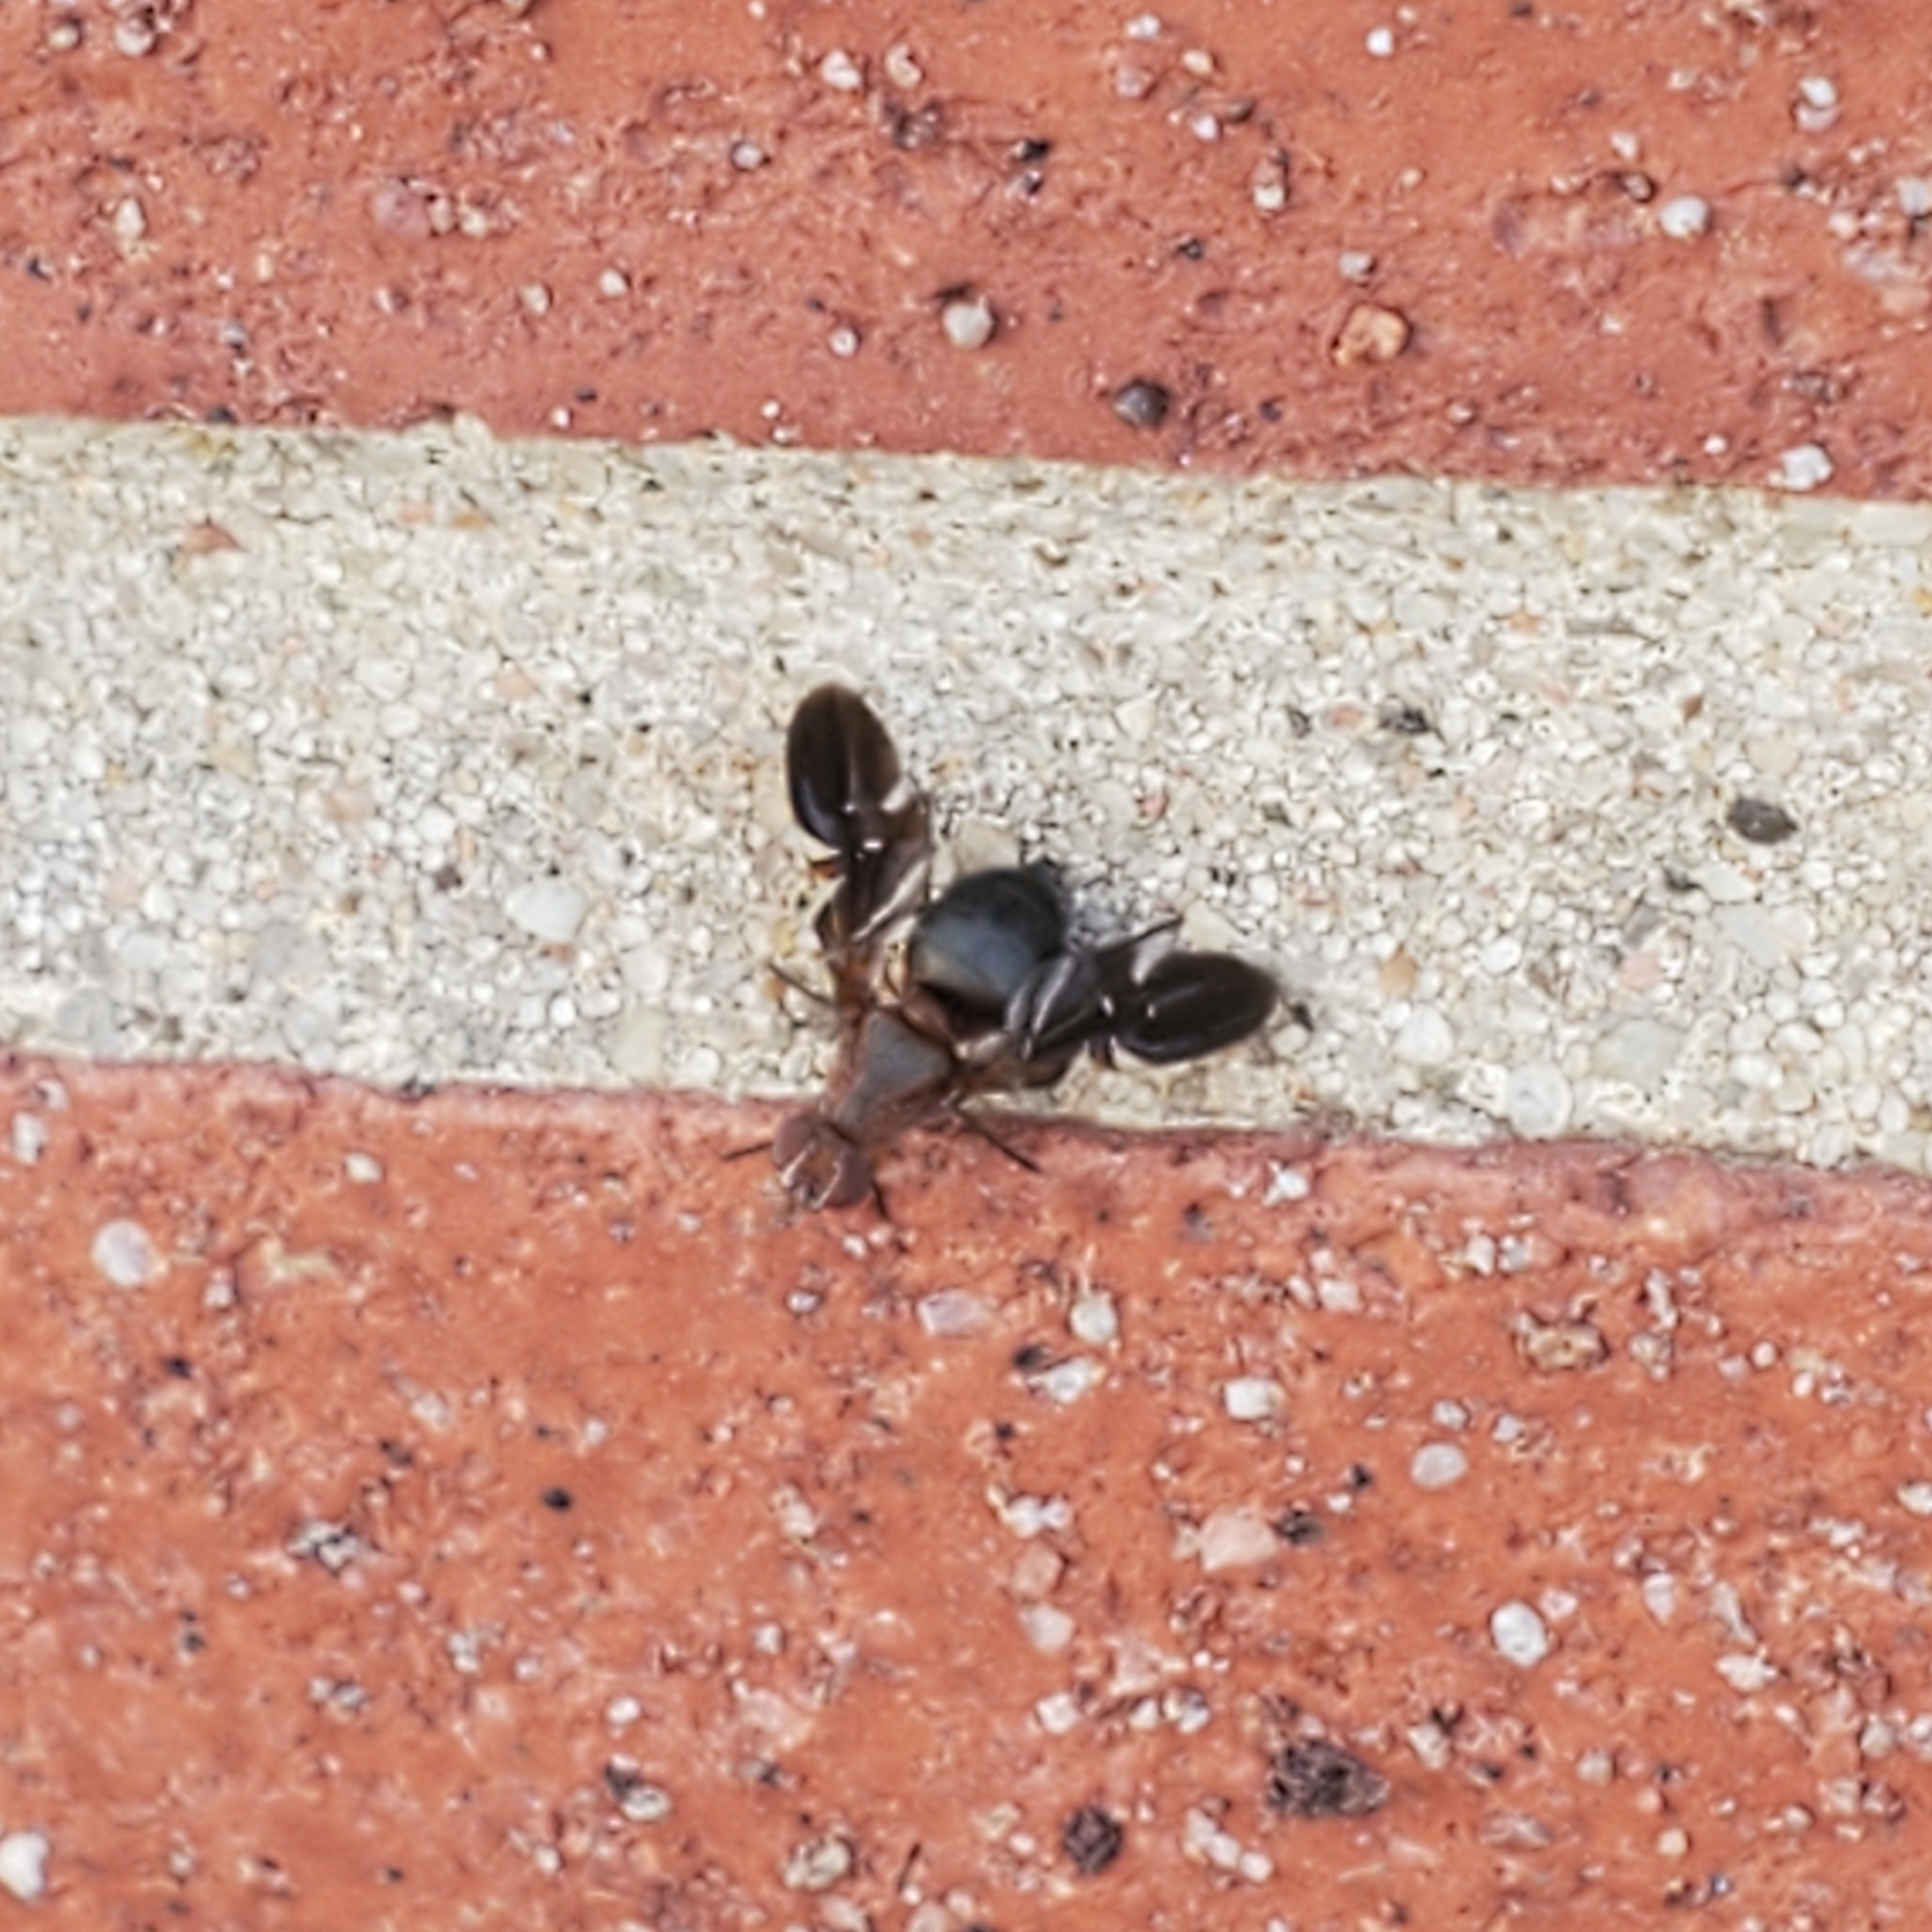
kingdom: Animalia
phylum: Arthropoda
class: Insecta
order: Diptera
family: Ulidiidae
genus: Delphinia
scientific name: Delphinia picta
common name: Common picture-winged fly
